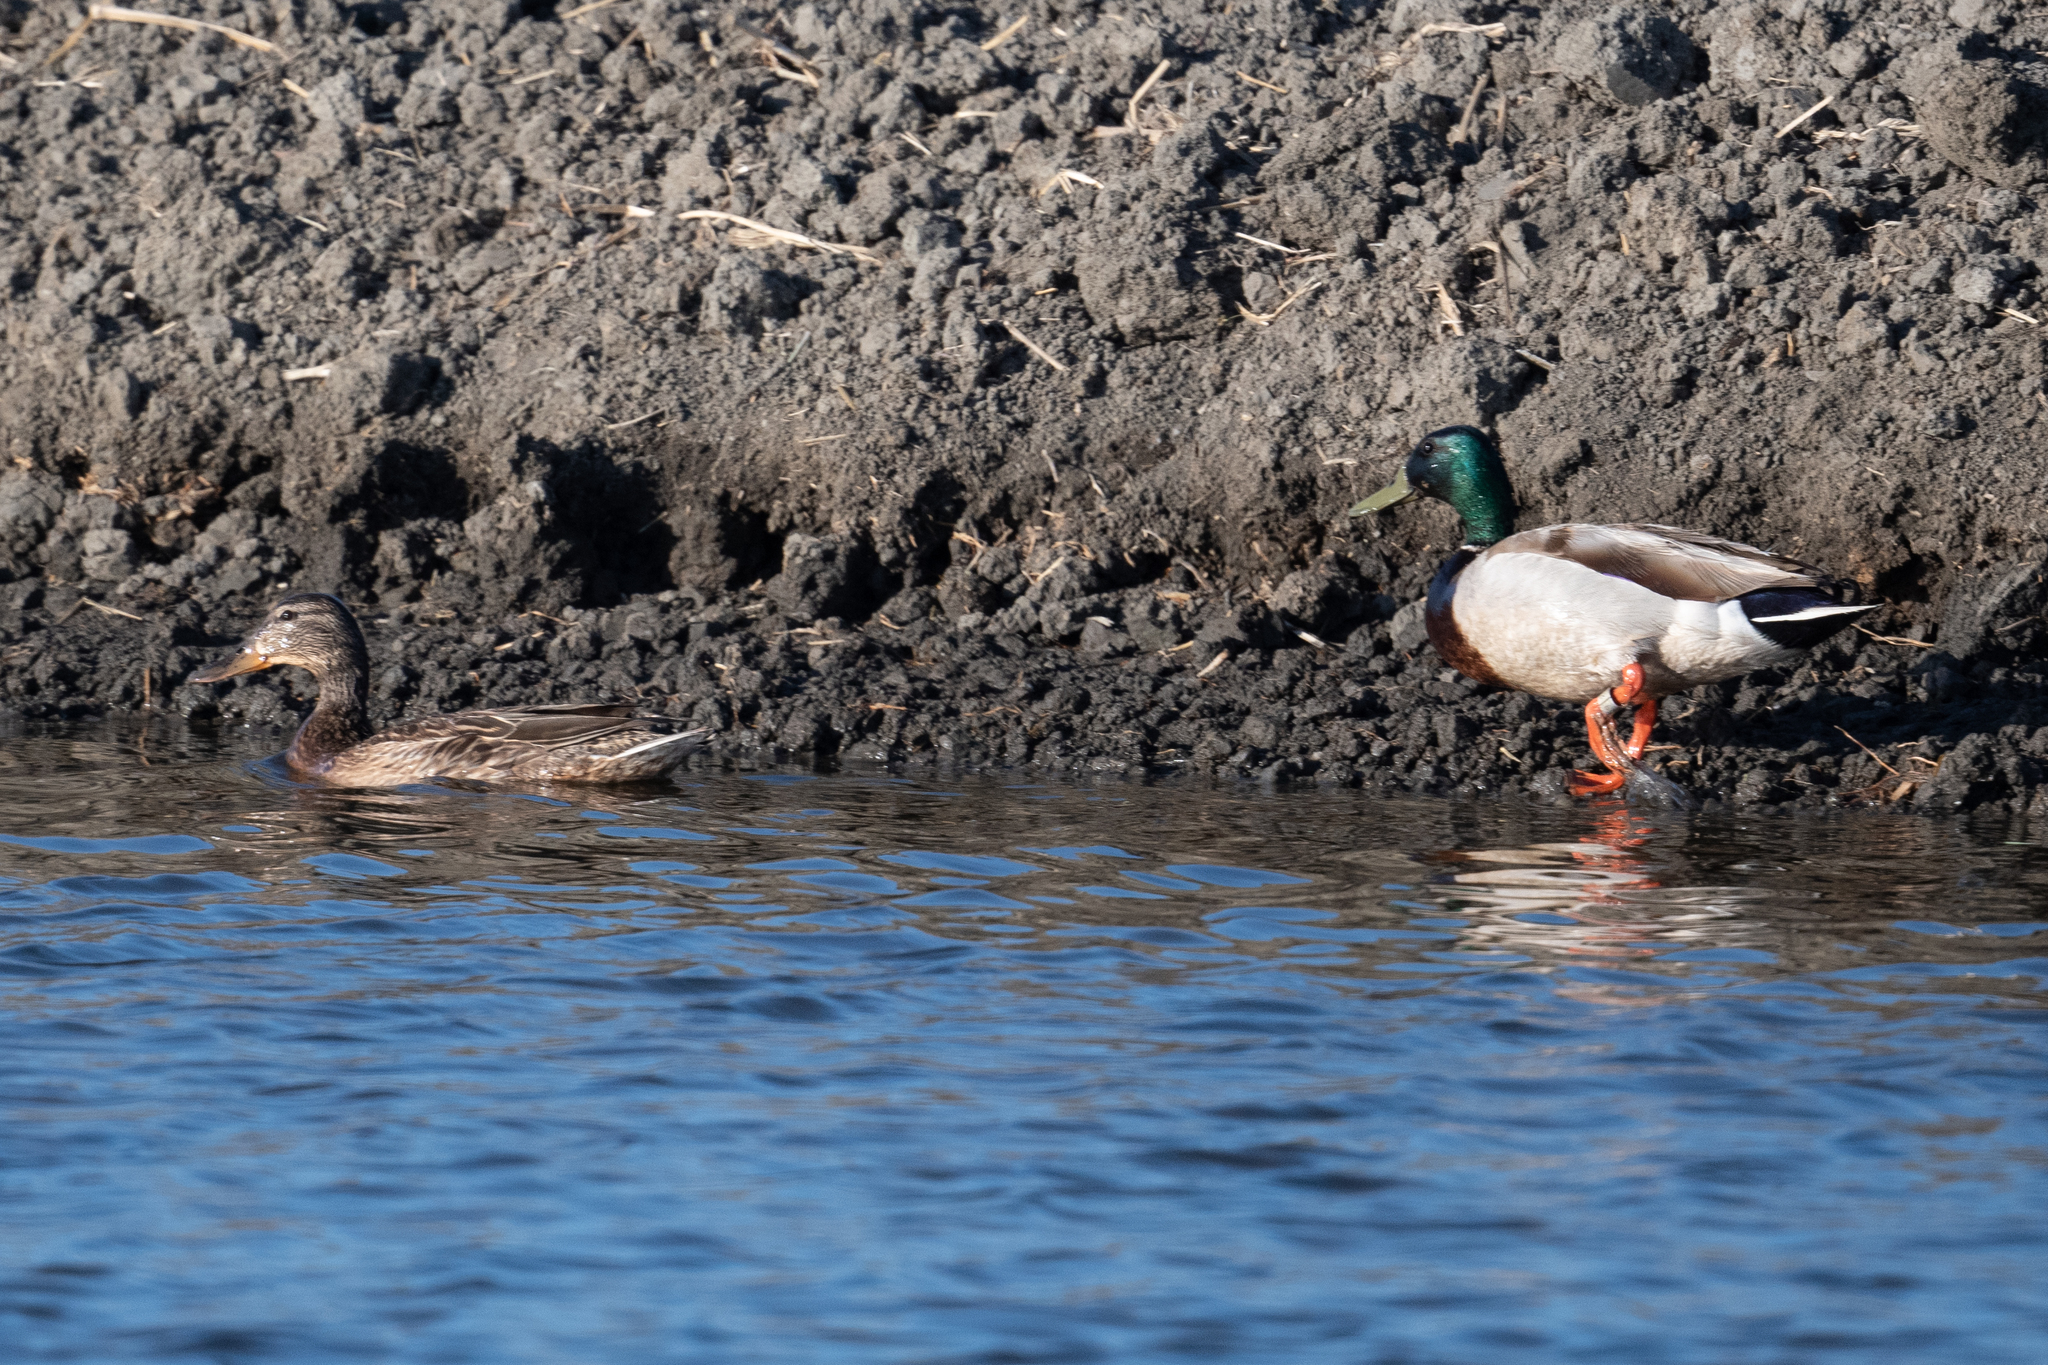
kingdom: Animalia
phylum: Chordata
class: Aves
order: Anseriformes
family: Anatidae
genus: Anas
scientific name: Anas platyrhynchos
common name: Mallard
